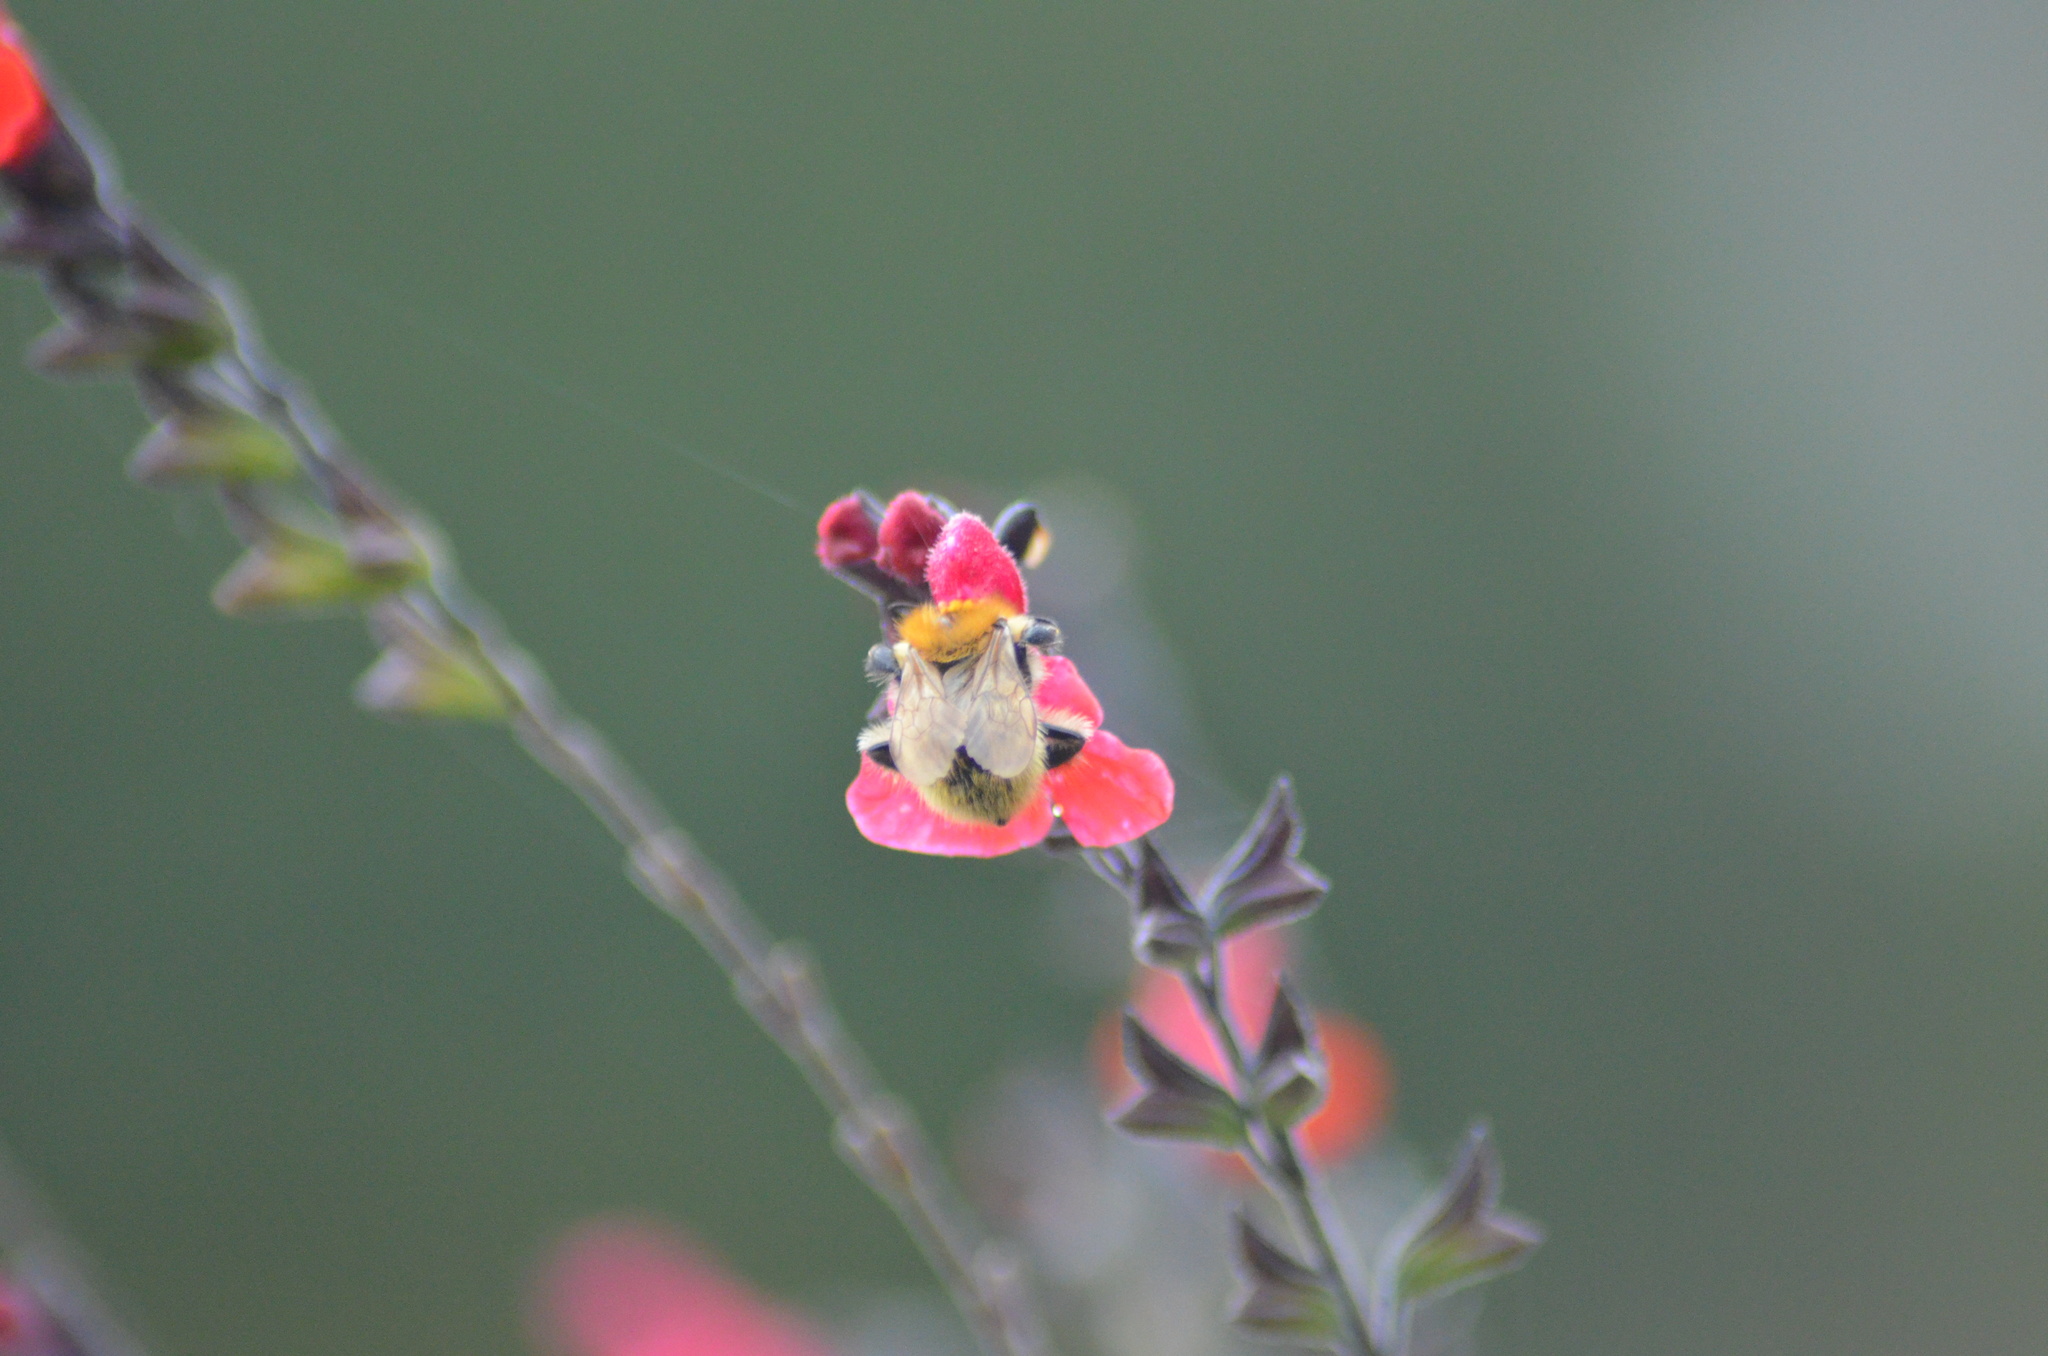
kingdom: Animalia
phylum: Arthropoda
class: Insecta
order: Hymenoptera
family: Apidae
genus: Bombus
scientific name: Bombus pascuorum
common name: Common carder bee
